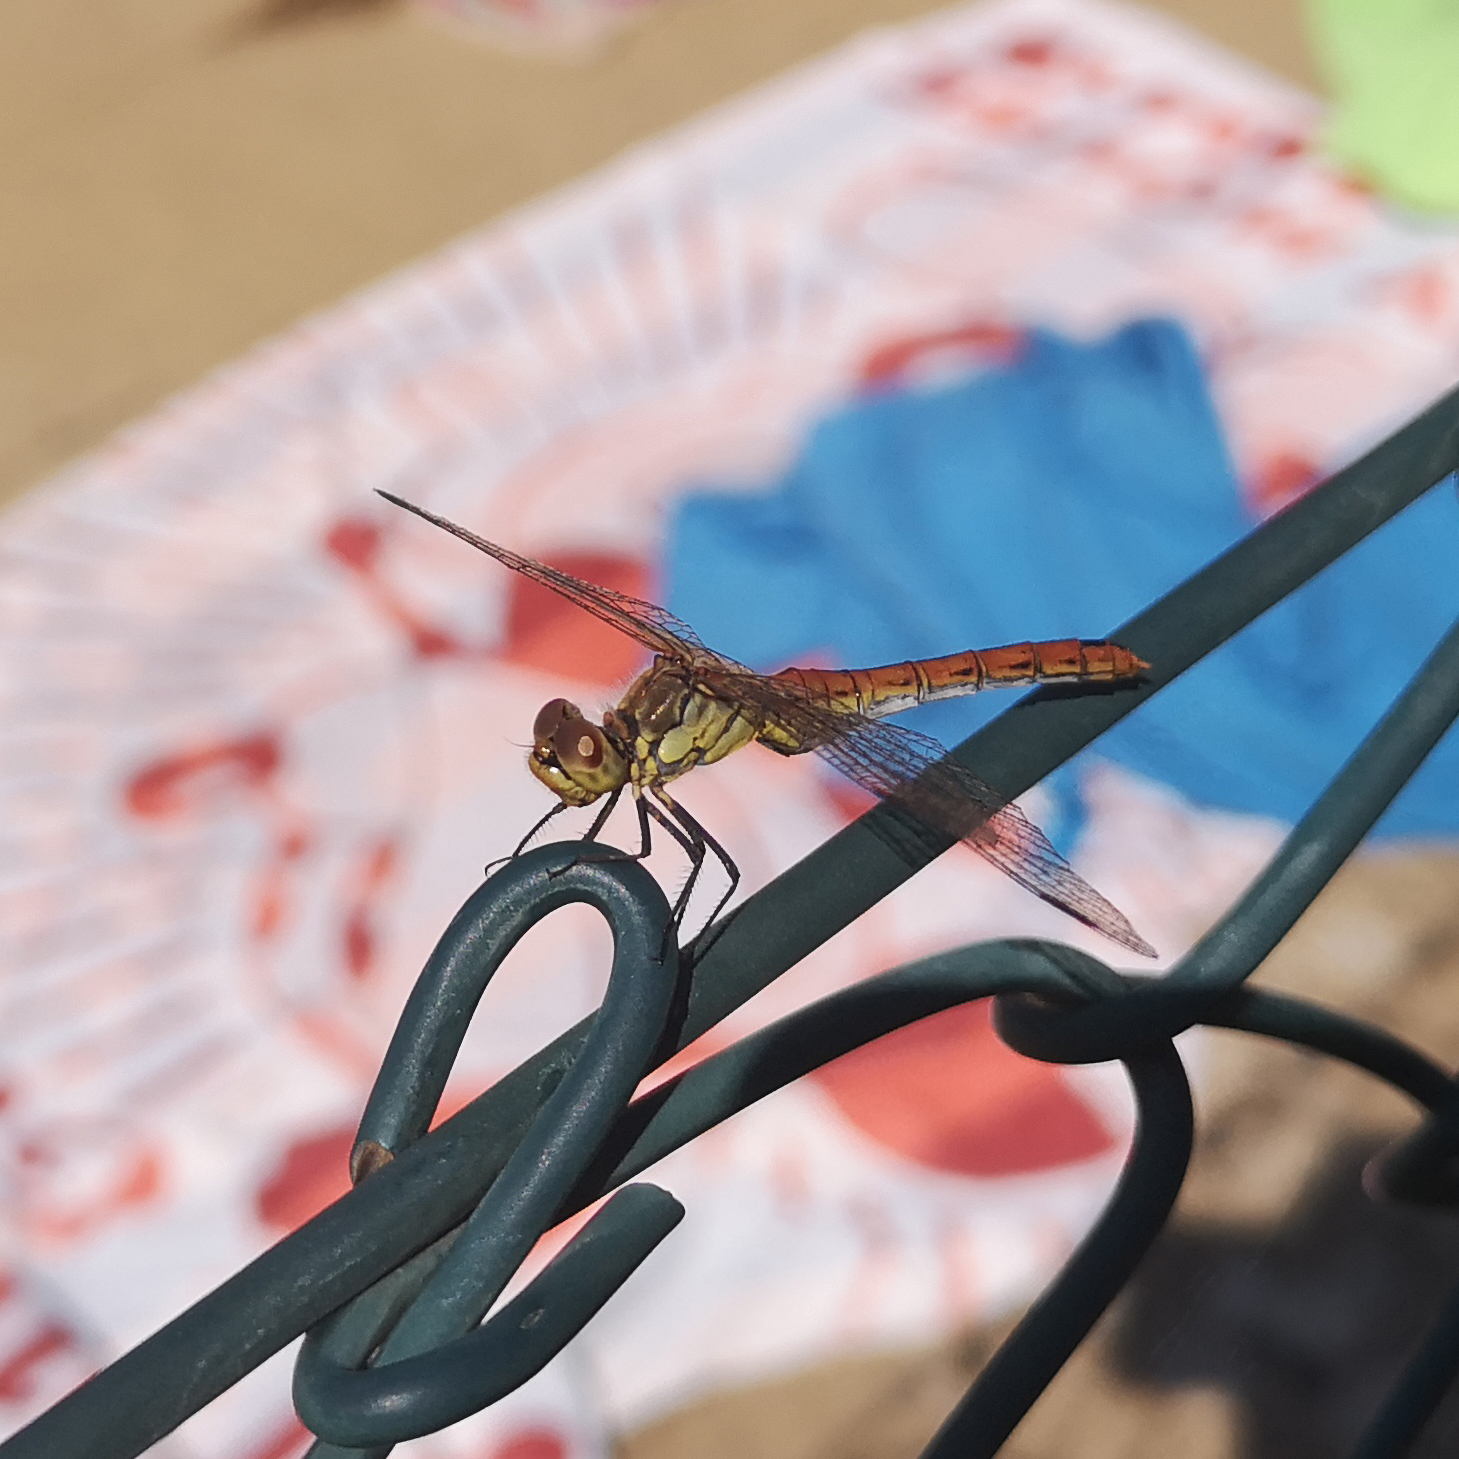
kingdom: Animalia
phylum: Arthropoda
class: Insecta
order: Odonata
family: Libellulidae
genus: Sympetrum
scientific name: Sympetrum sanguineum
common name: Ruddy darter
